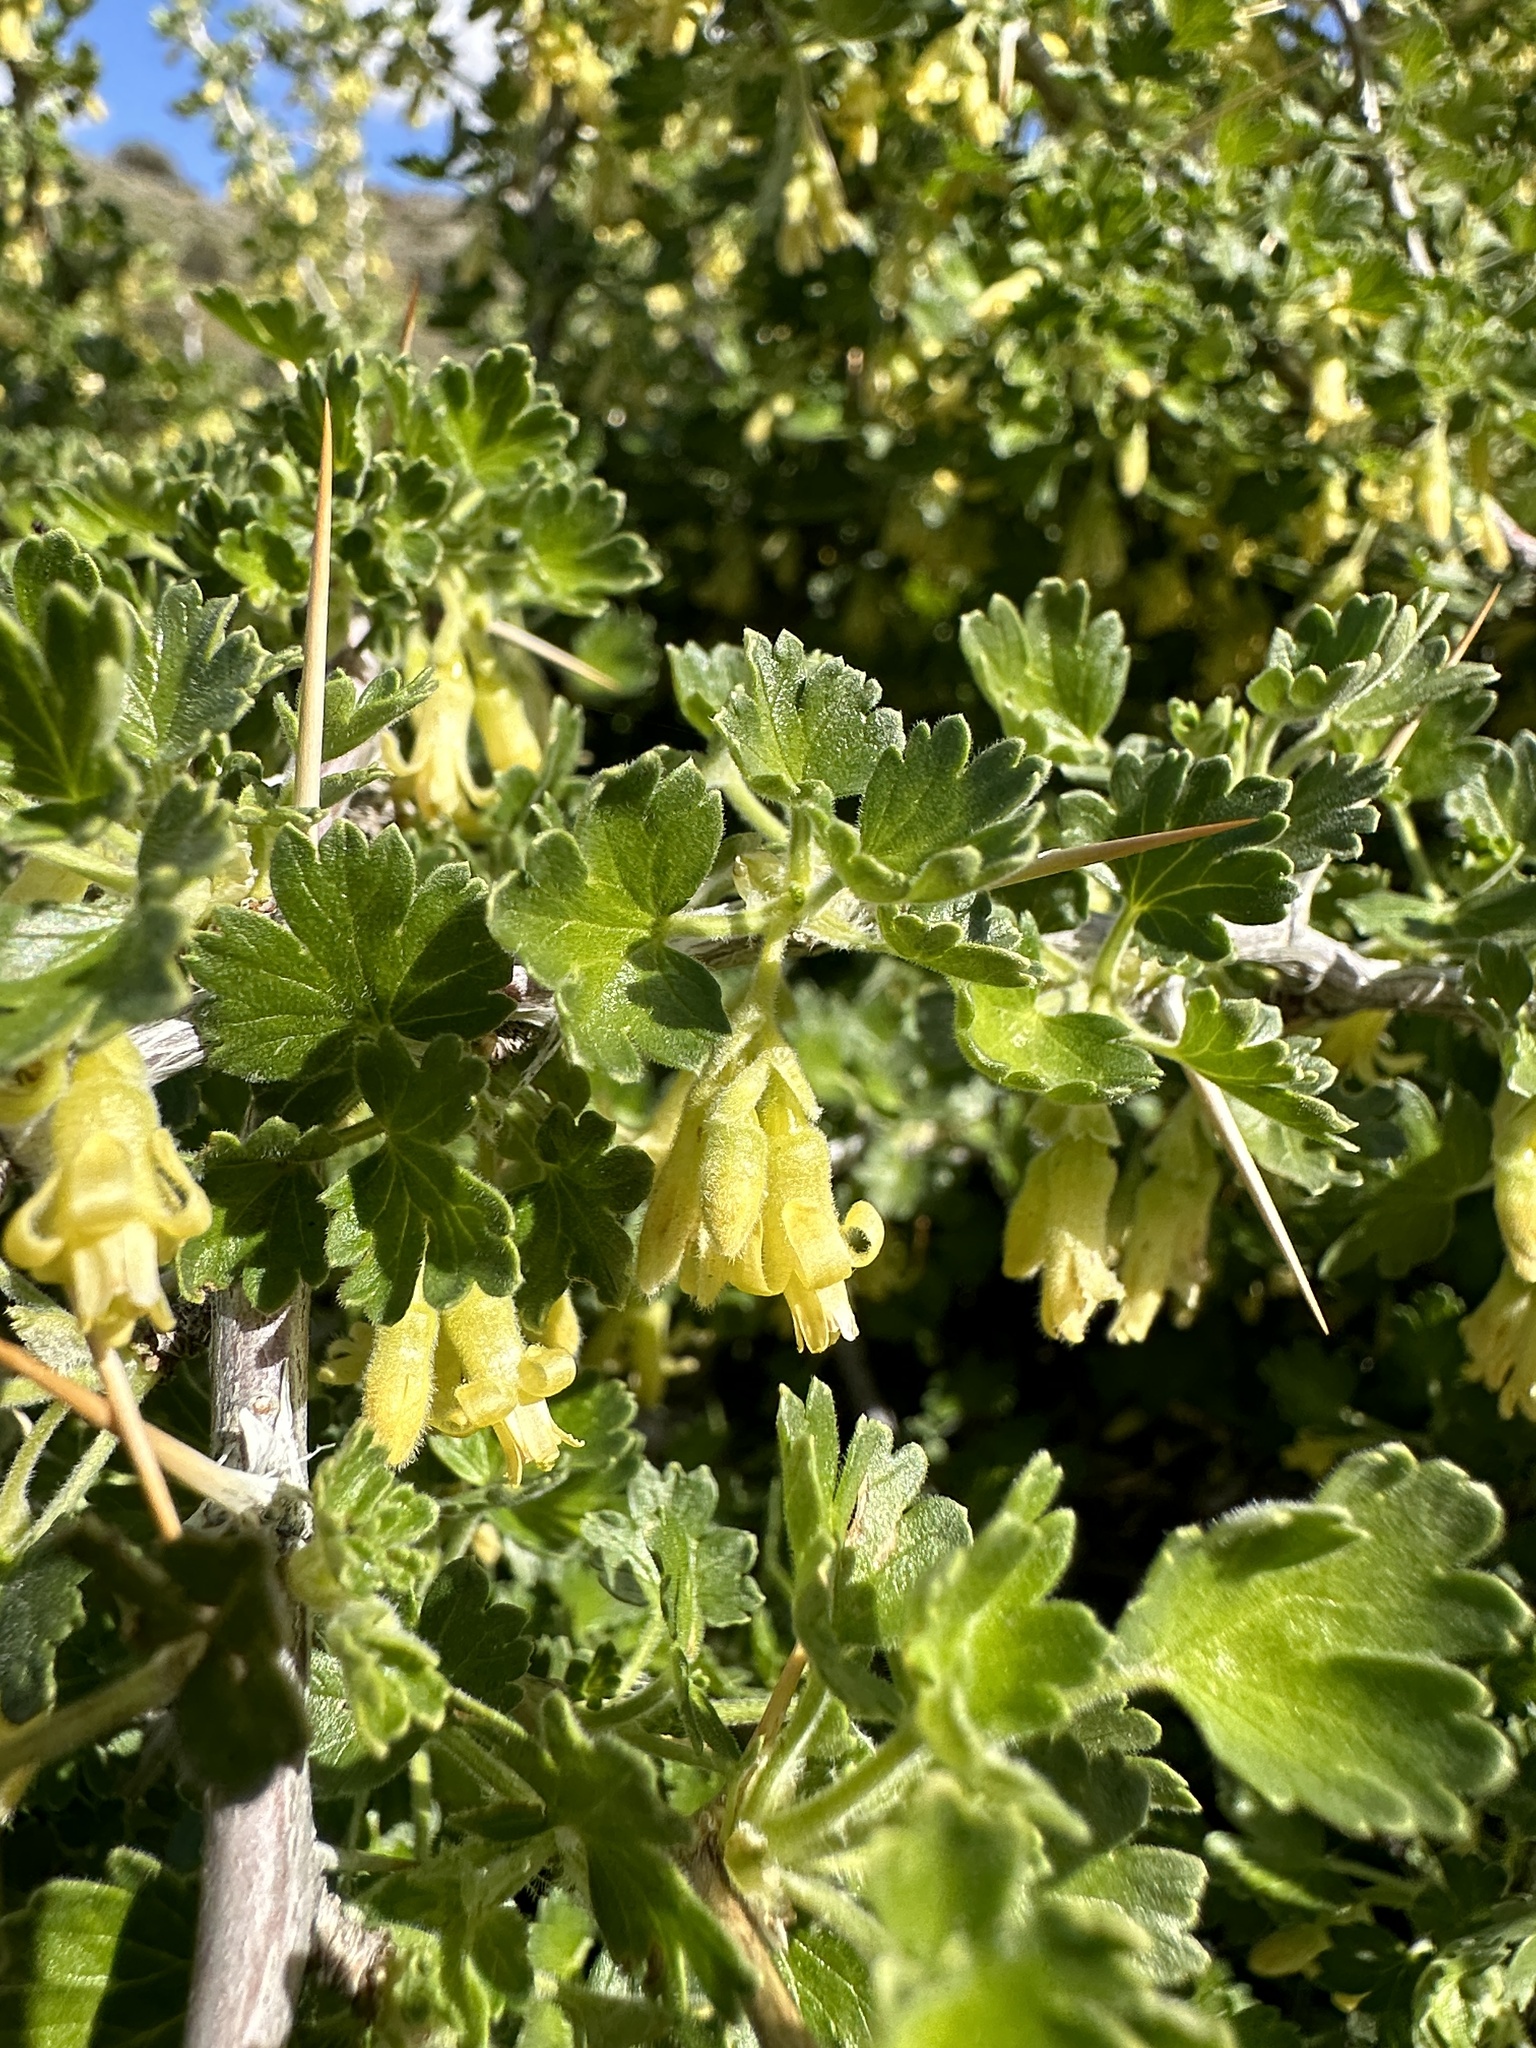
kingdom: Plantae
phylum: Tracheophyta
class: Magnoliopsida
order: Saxifragales
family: Grossulariaceae
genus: Ribes
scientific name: Ribes quercetorum
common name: Oak gooseberry
